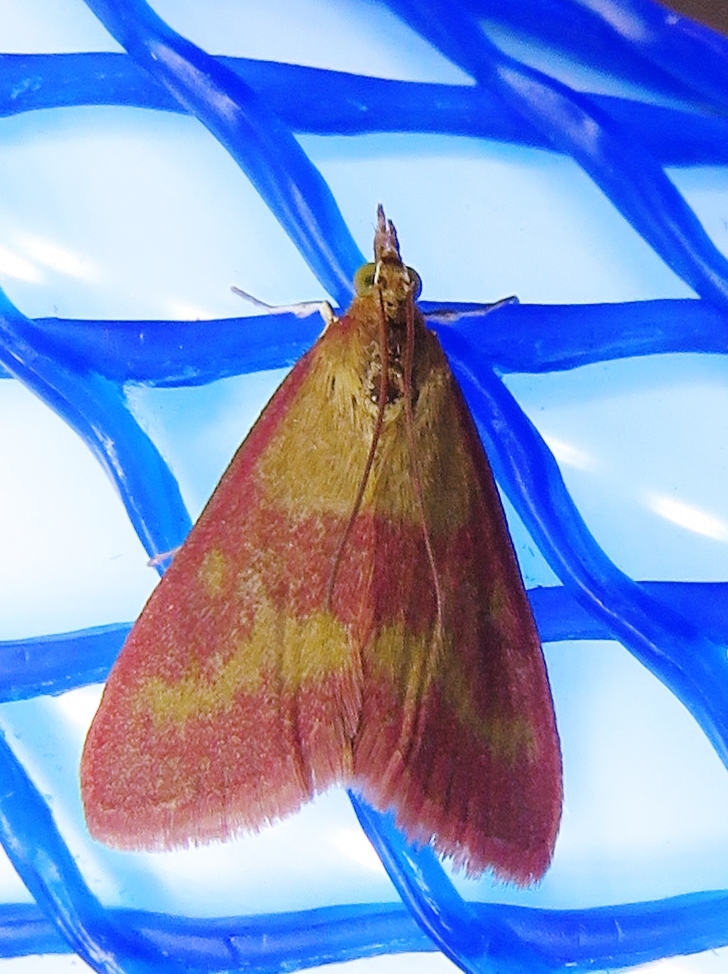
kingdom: Animalia
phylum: Arthropoda
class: Insecta
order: Lepidoptera
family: Crambidae
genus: Pyrausta
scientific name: Pyrausta laticlavia
